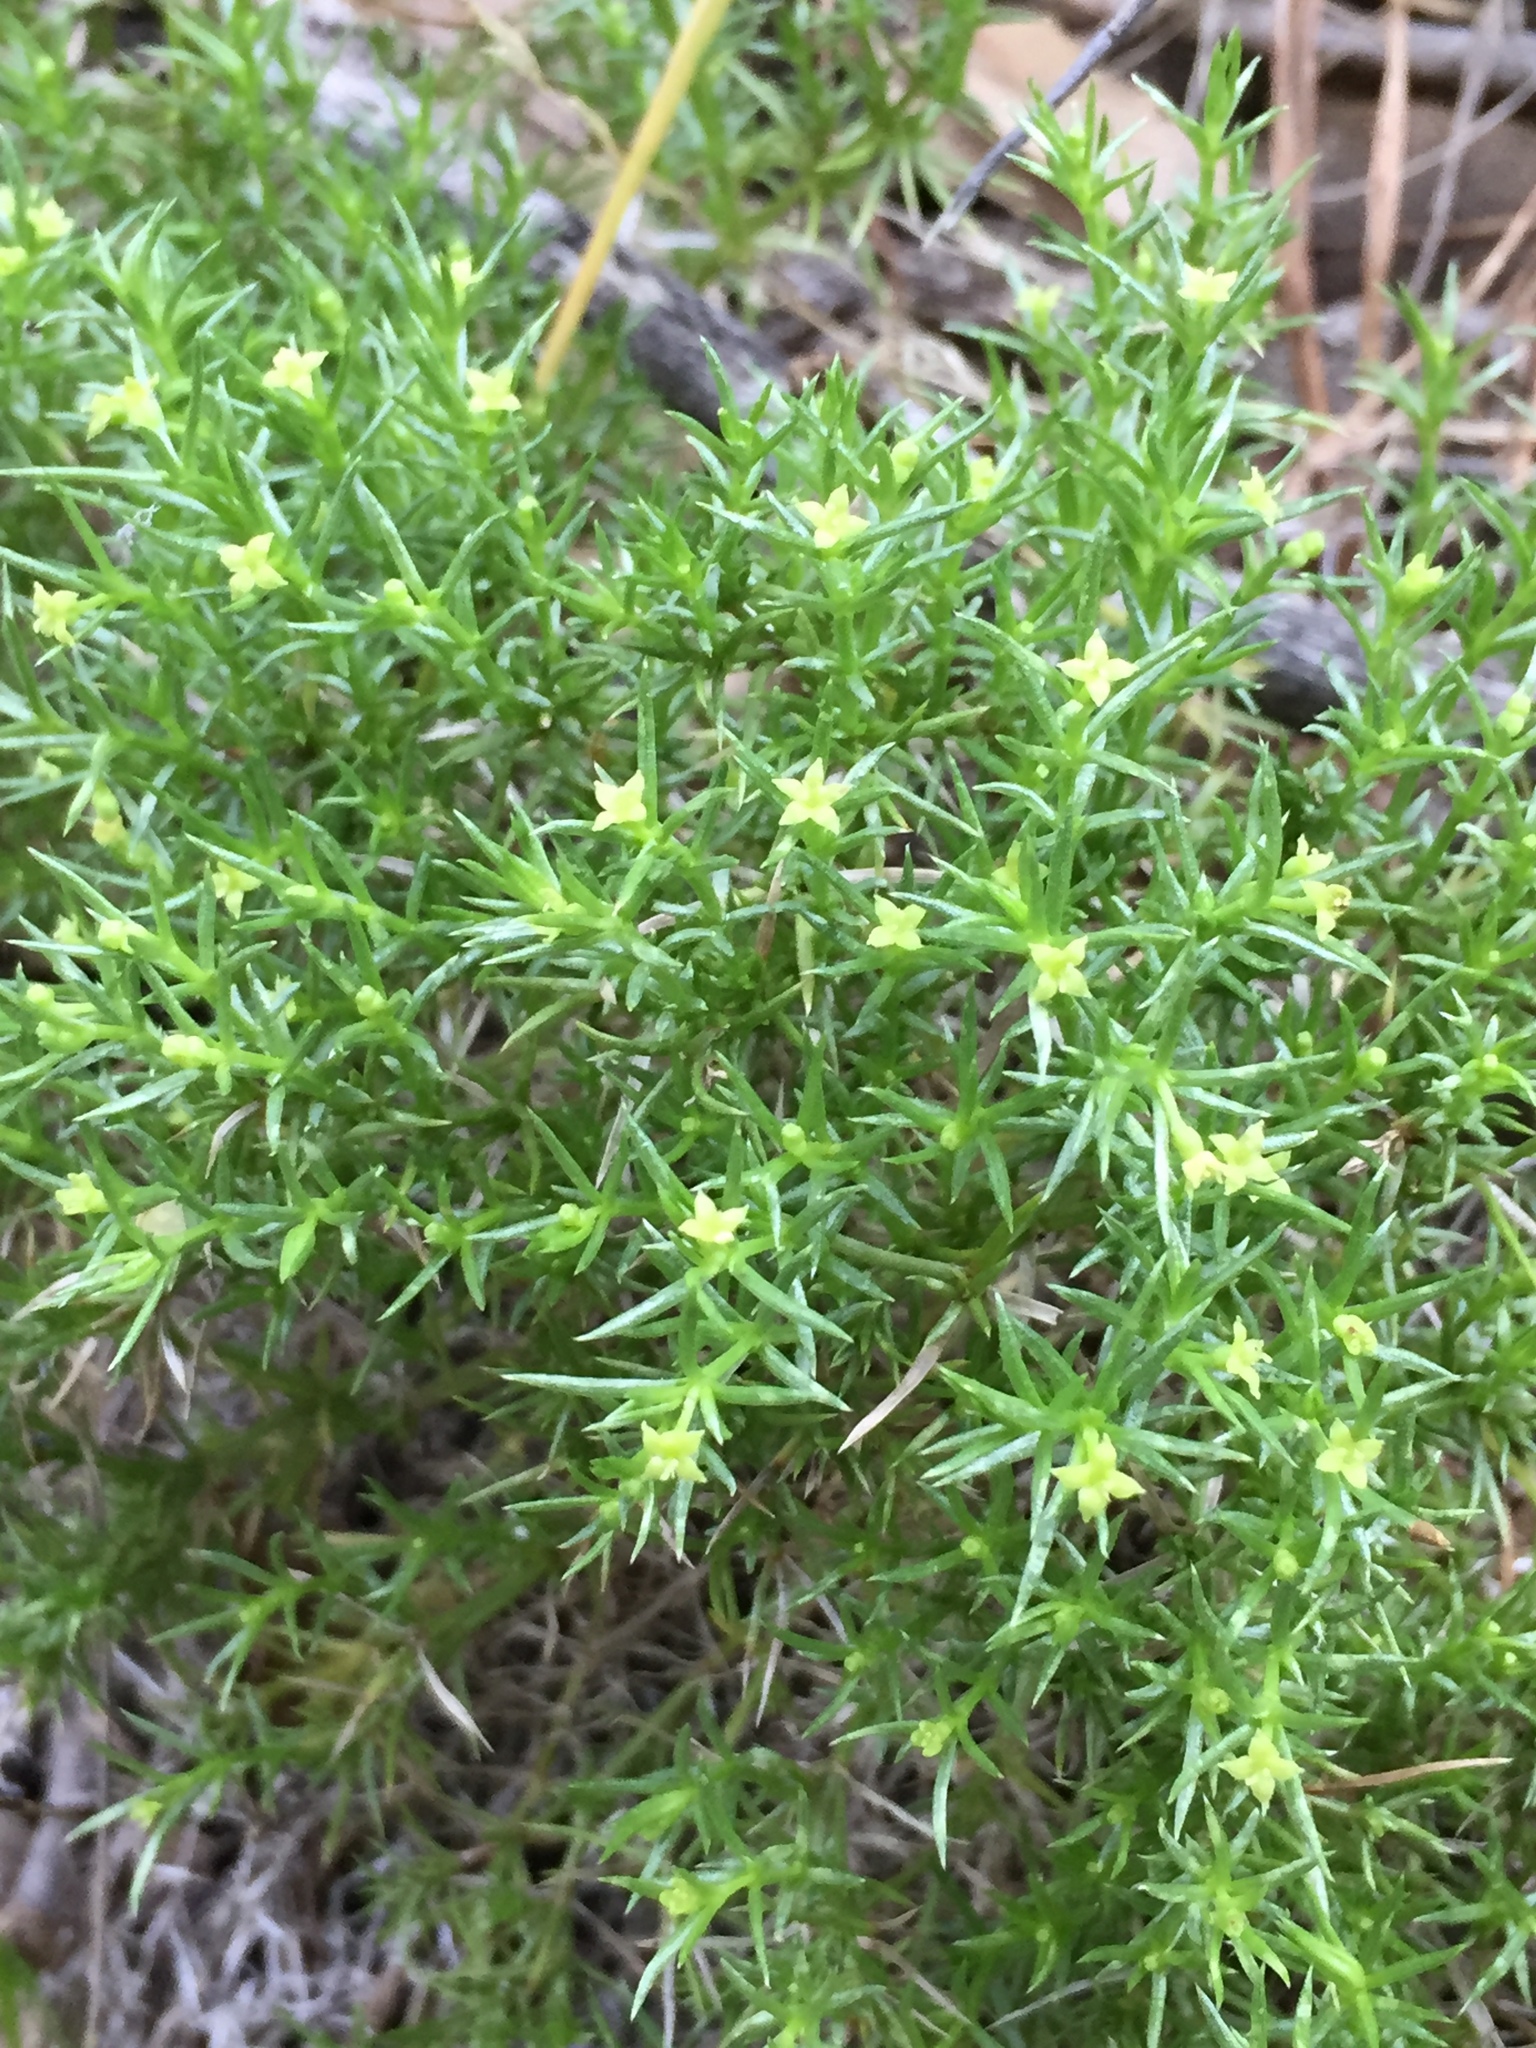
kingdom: Plantae
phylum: Tracheophyta
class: Magnoliopsida
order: Gentianales
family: Rubiaceae
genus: Galium
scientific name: Galium andrewsii
